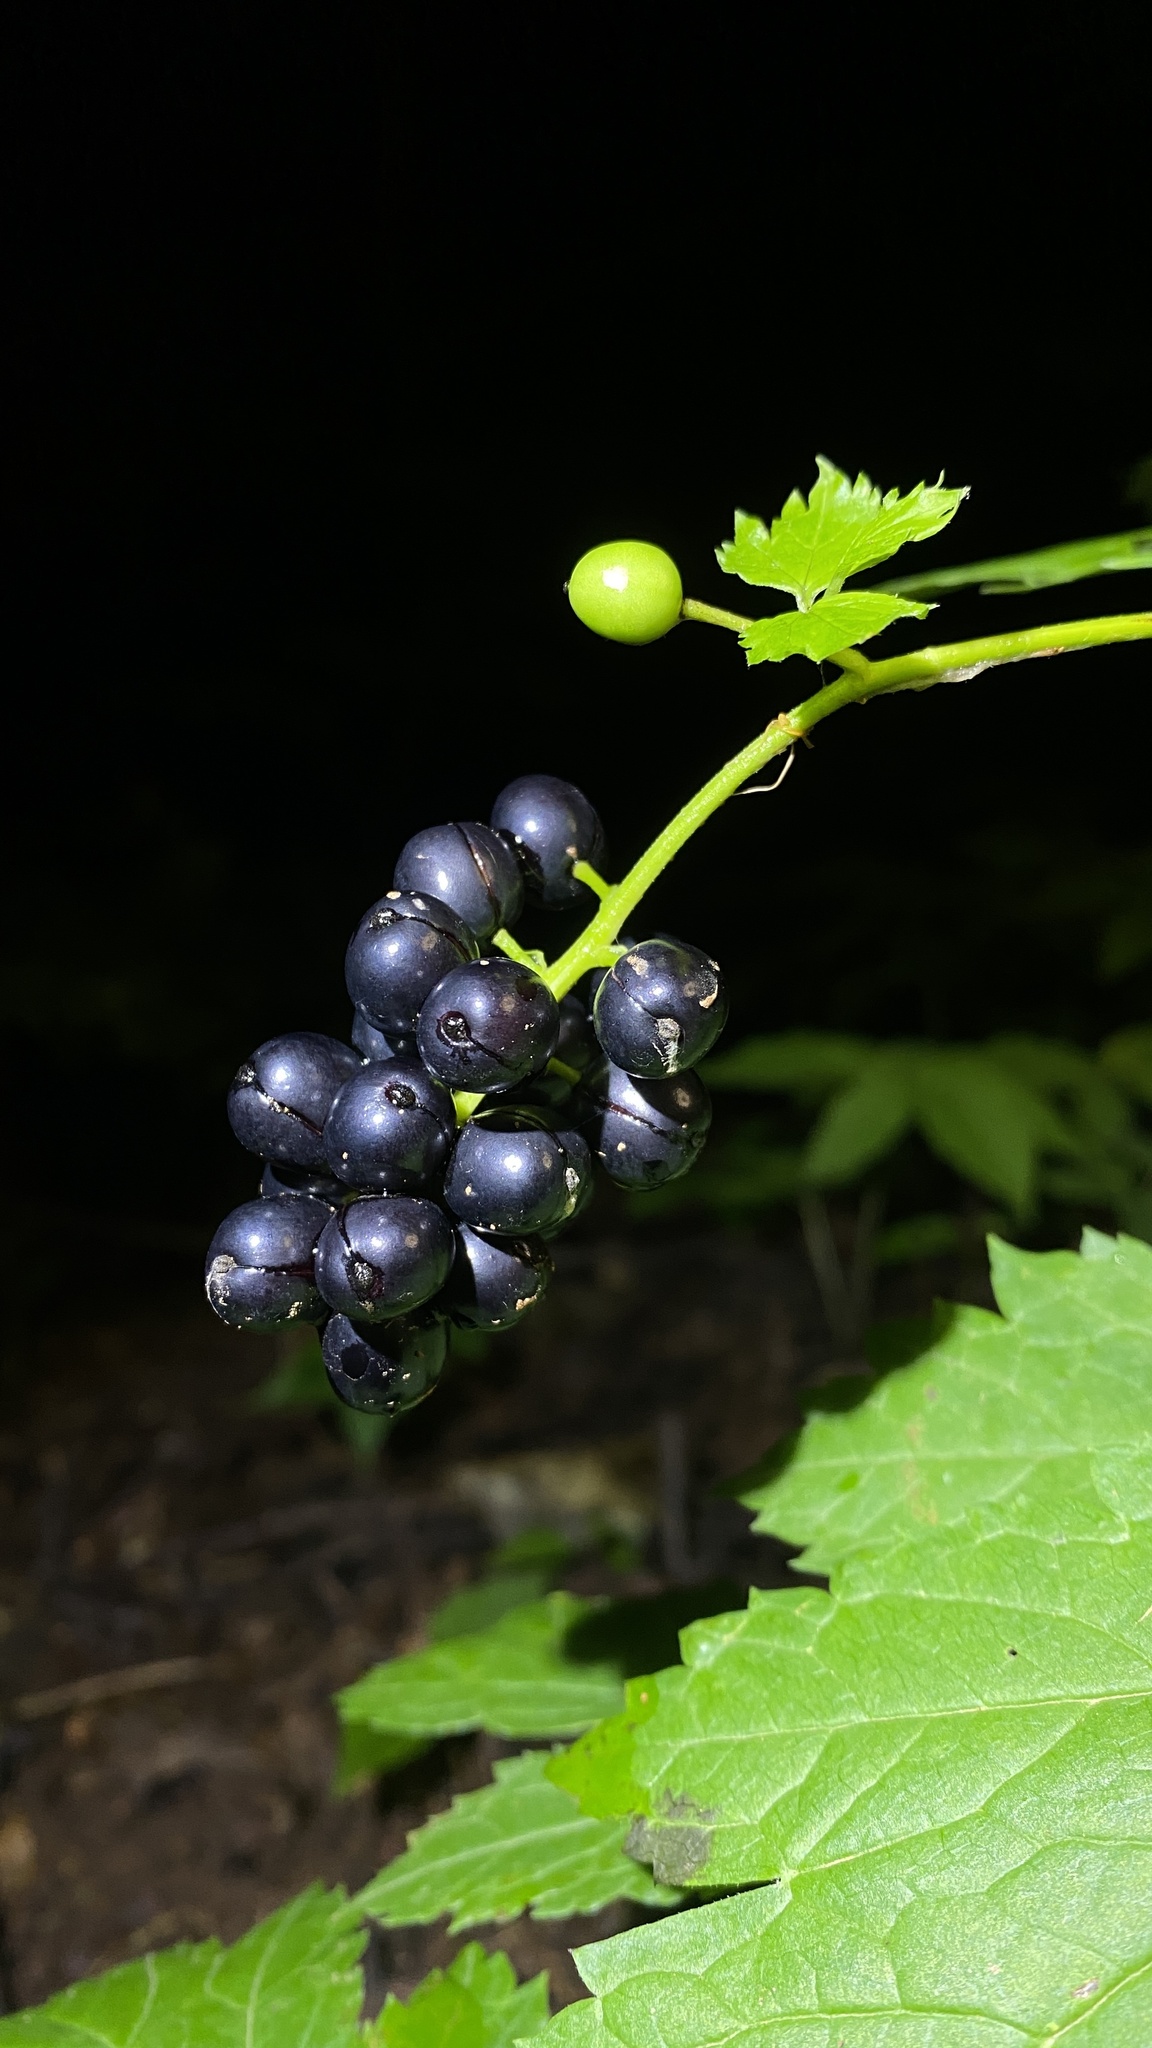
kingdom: Plantae
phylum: Tracheophyta
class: Magnoliopsida
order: Ranunculales
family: Ranunculaceae
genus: Actaea
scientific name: Actaea spicata
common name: Baneberry
